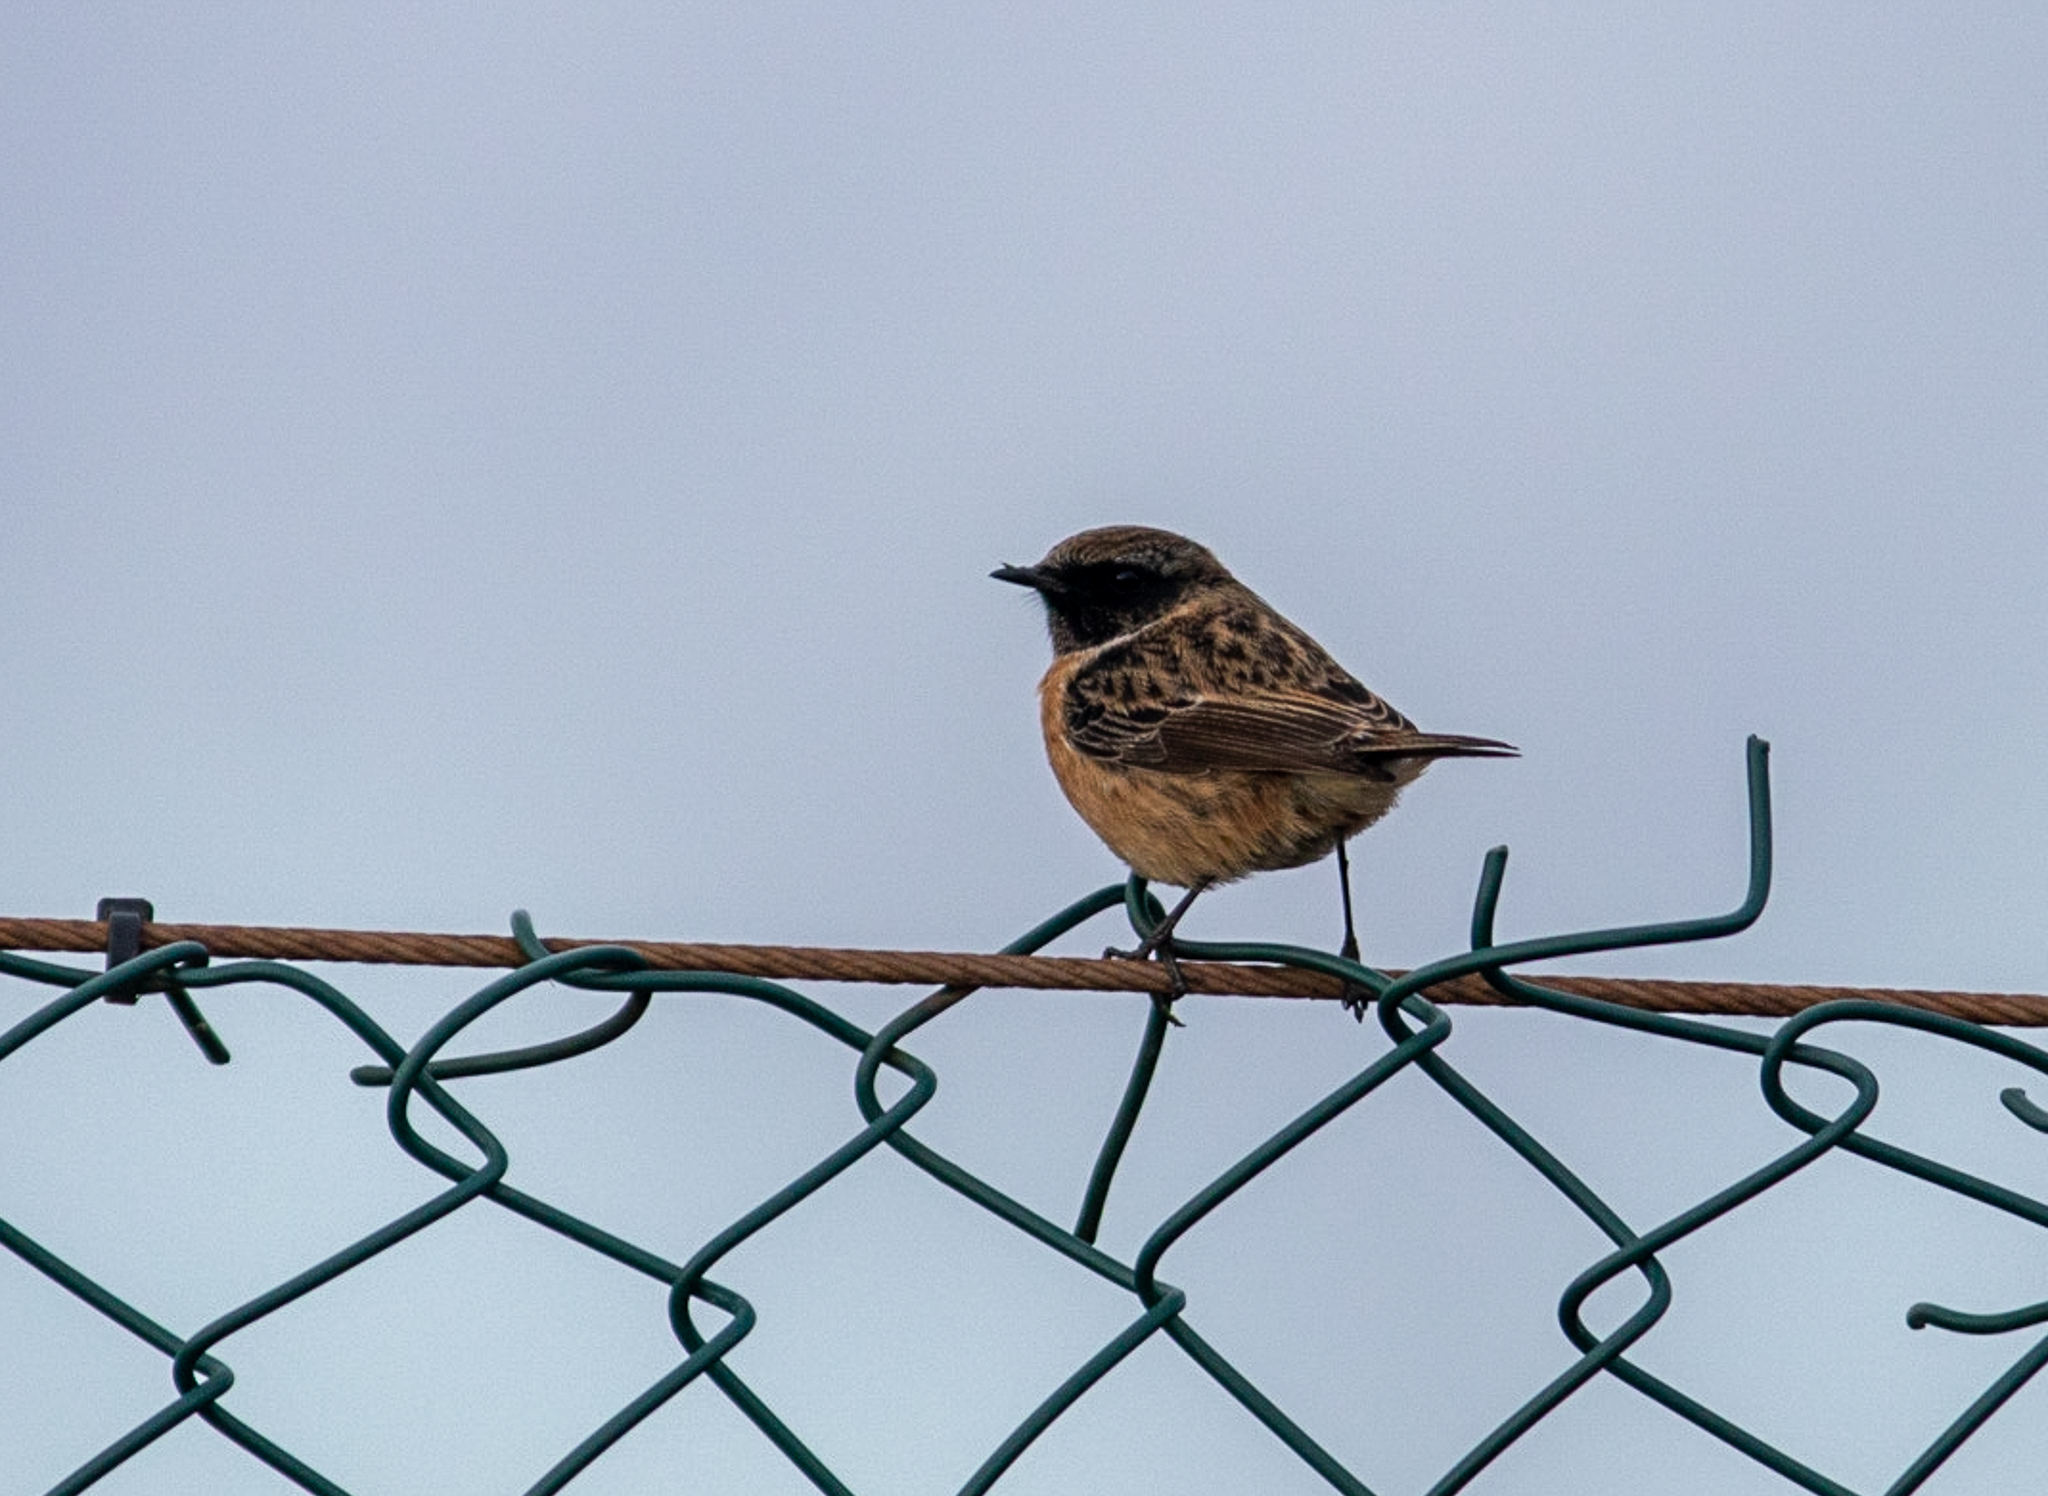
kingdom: Animalia
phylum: Chordata
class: Aves
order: Passeriformes
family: Muscicapidae
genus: Saxicola
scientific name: Saxicola rubicola
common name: European stonechat
